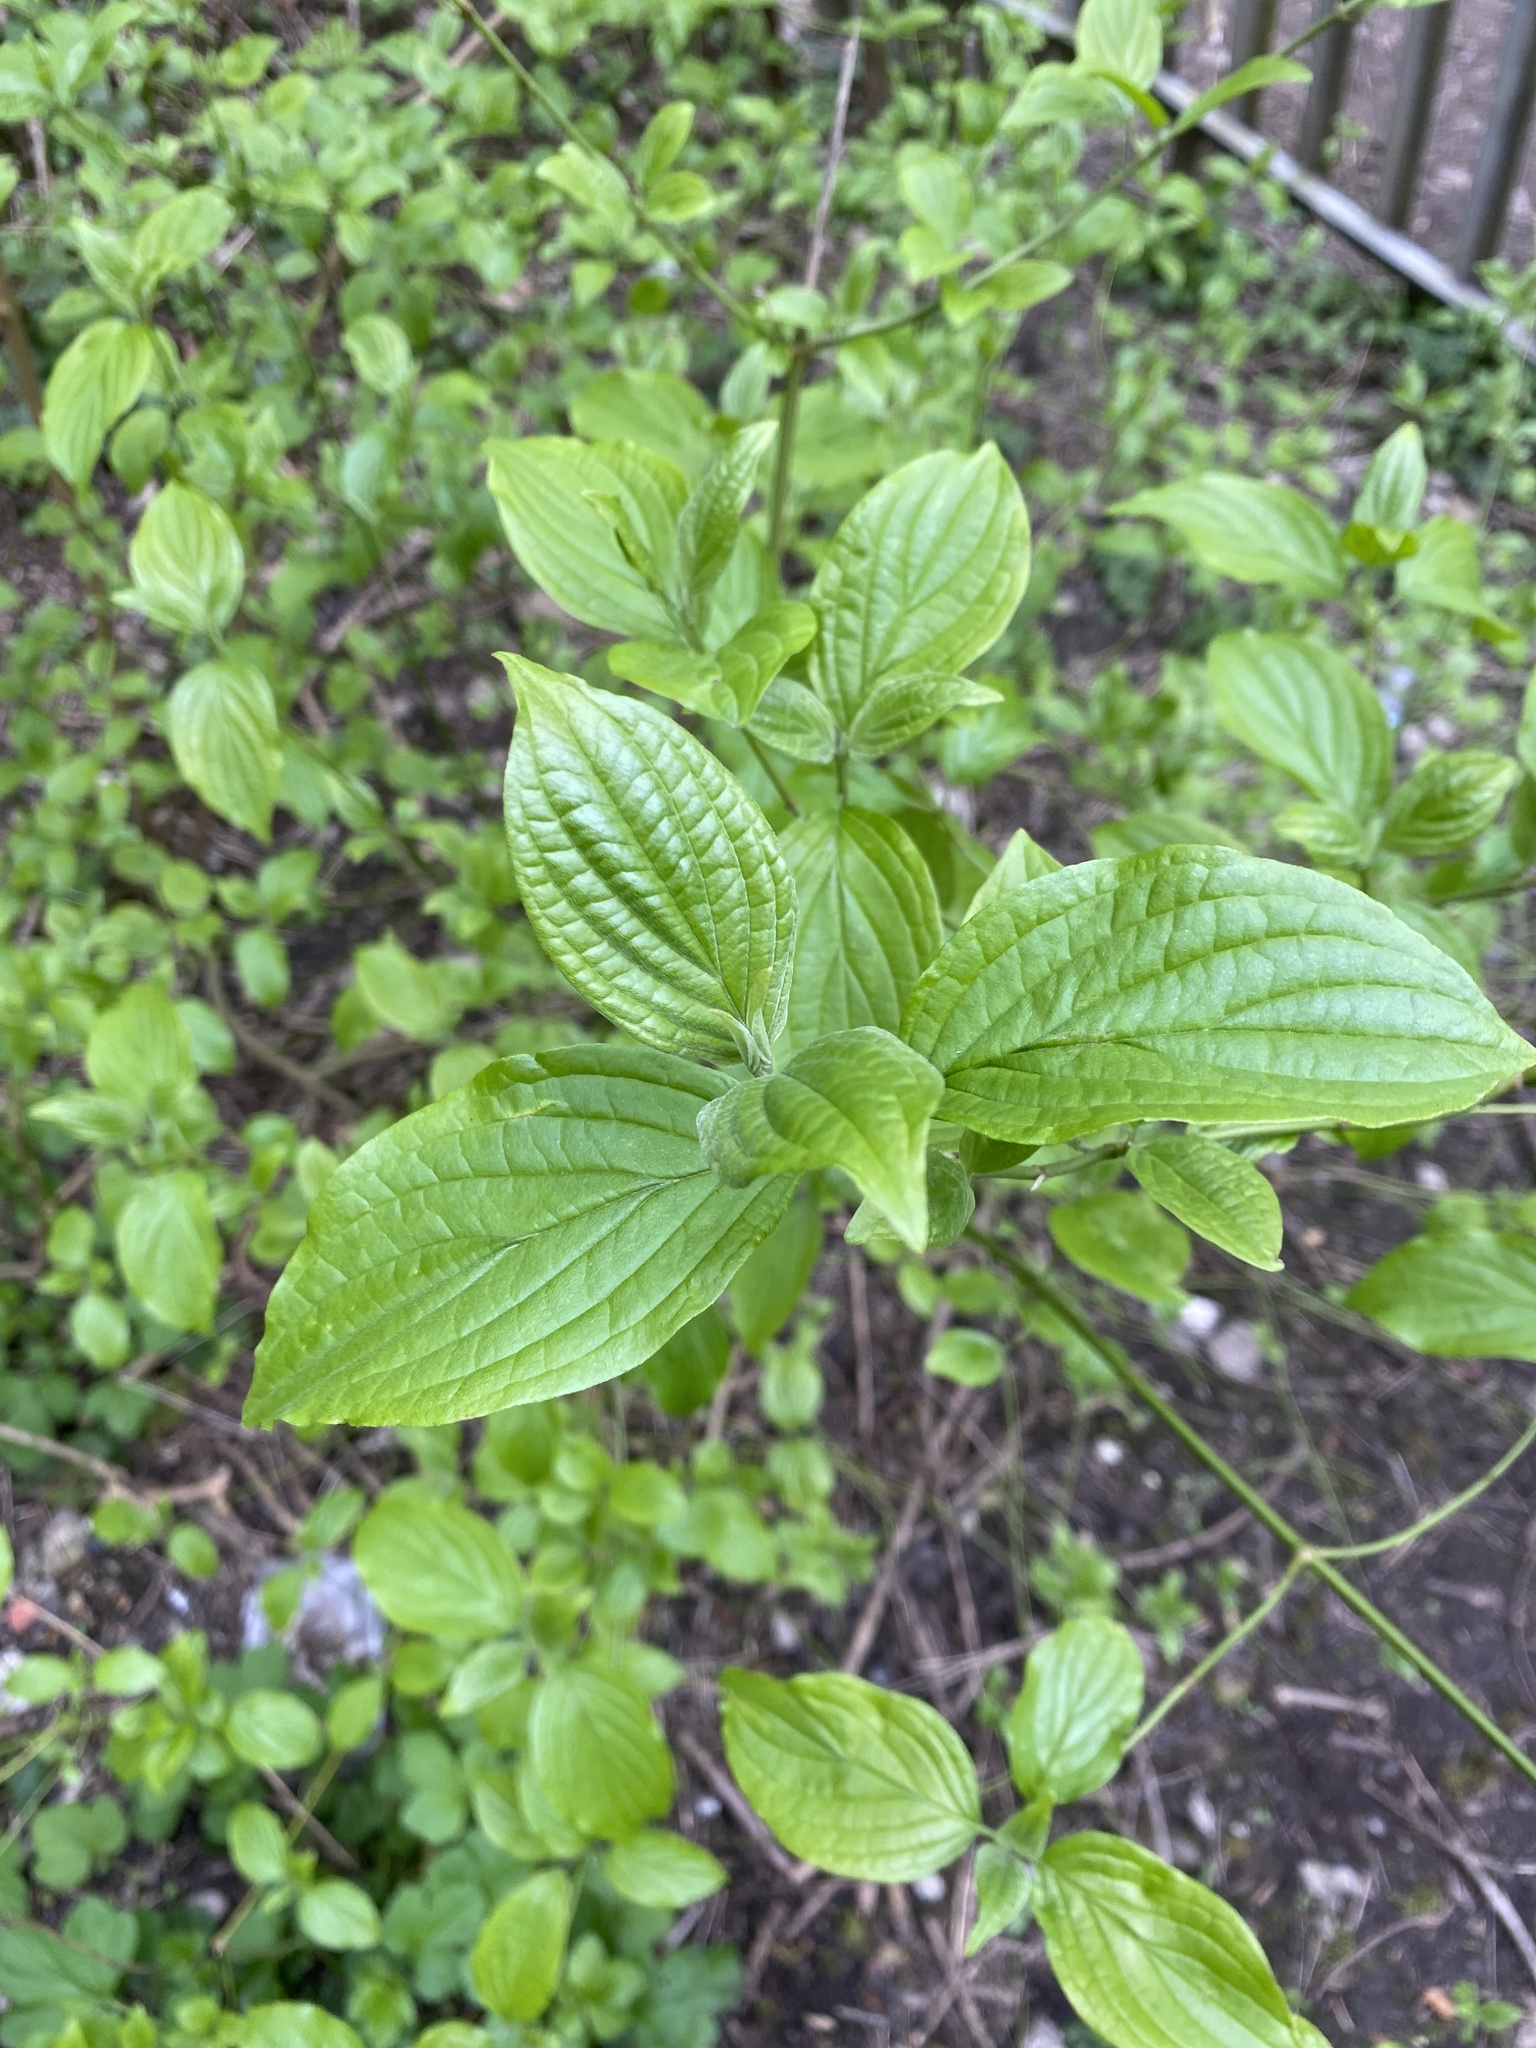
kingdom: Plantae
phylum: Tracheophyta
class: Magnoliopsida
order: Cornales
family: Cornaceae
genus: Cornus
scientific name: Cornus sanguinea
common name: Dogwood
